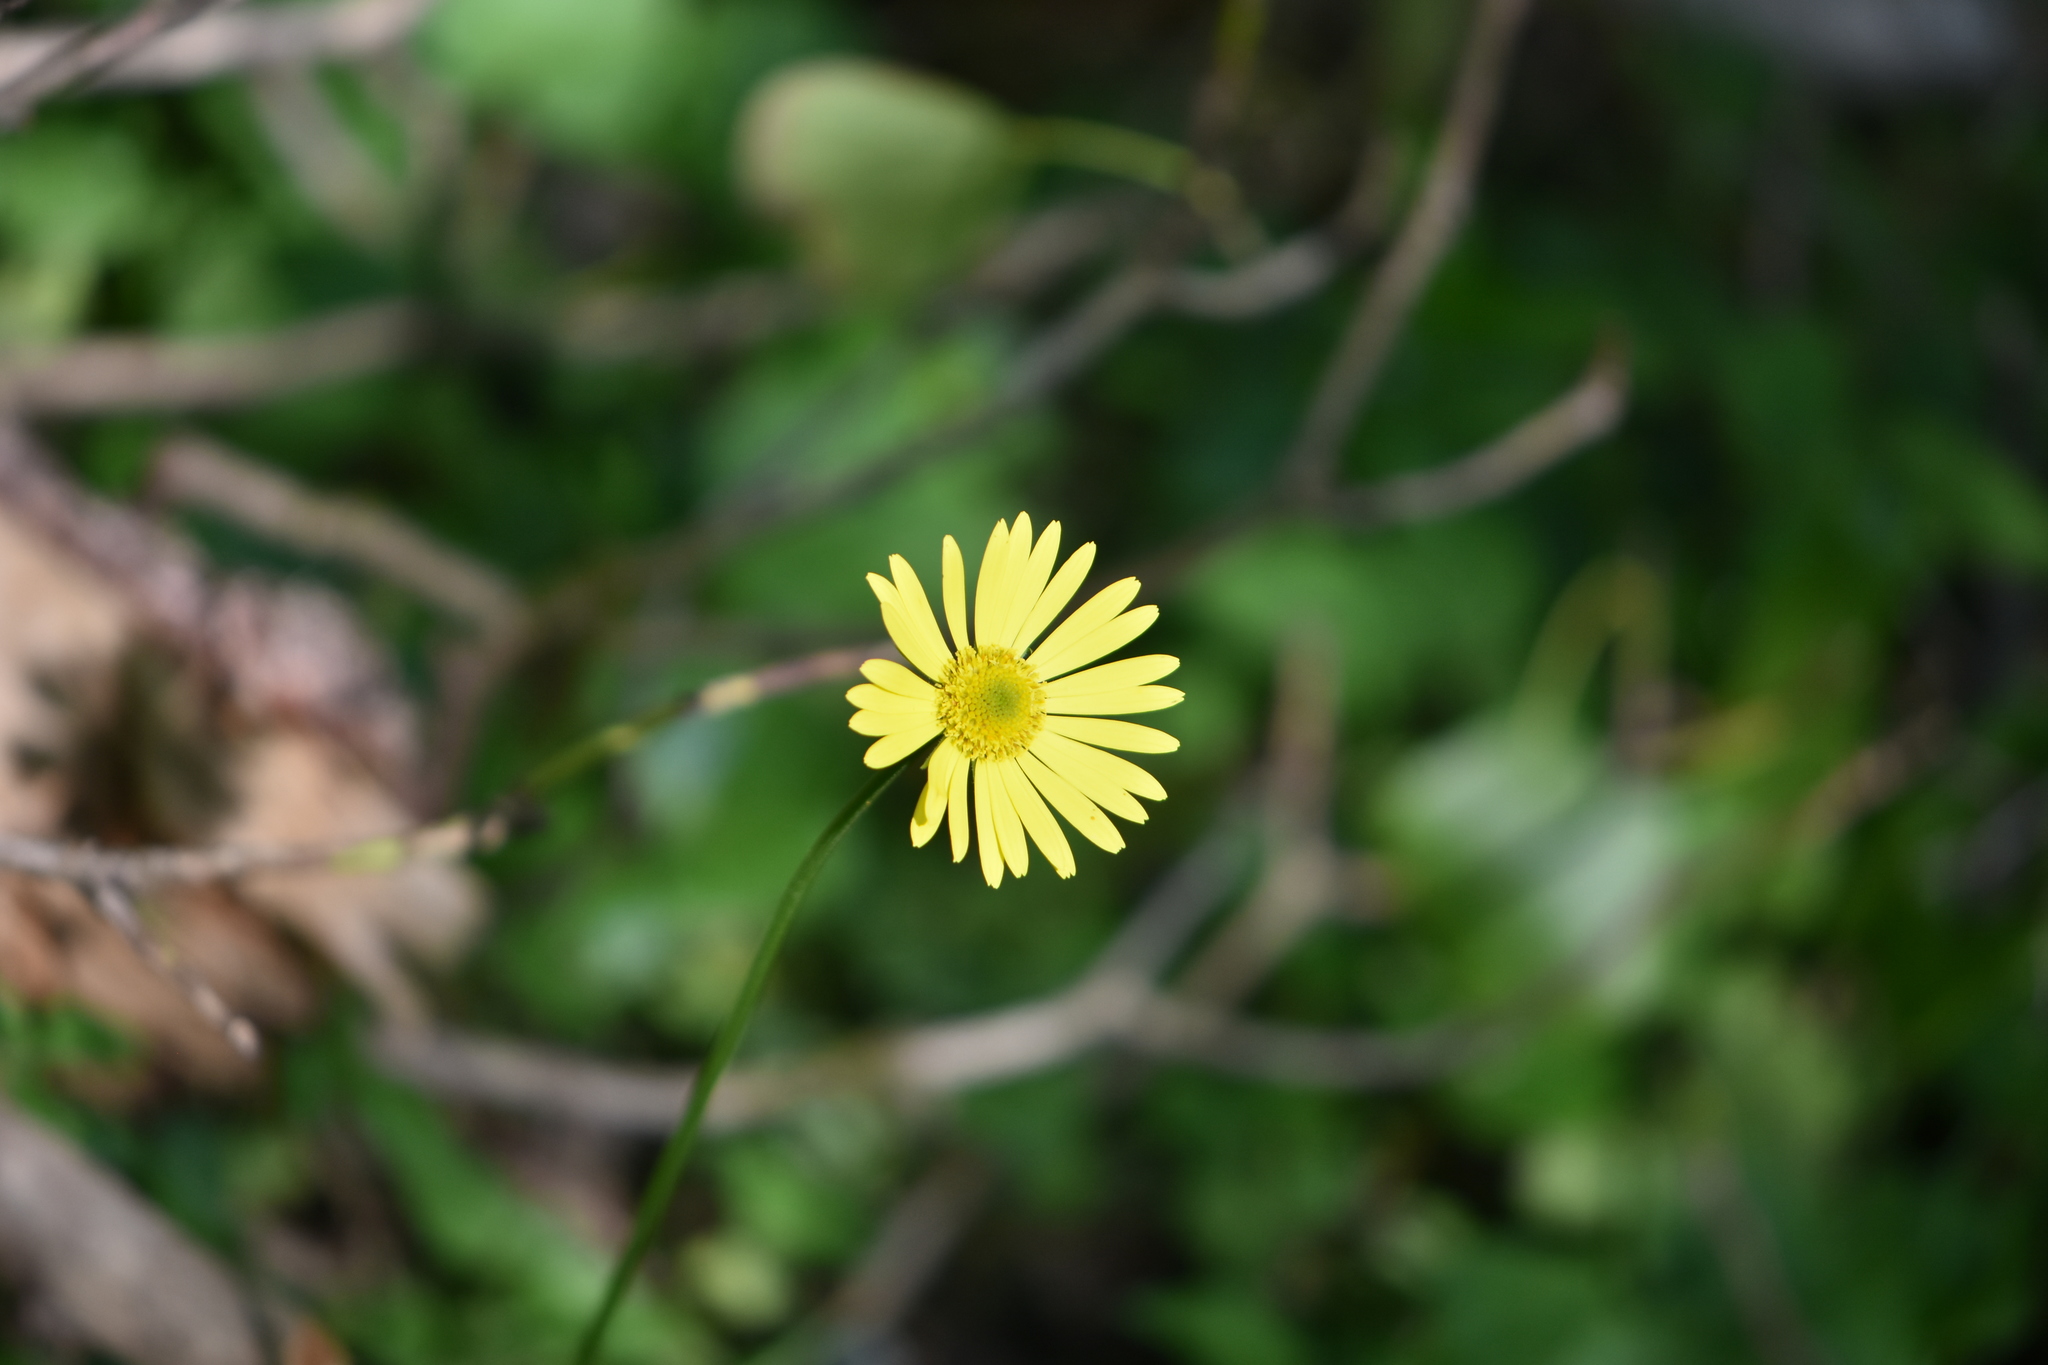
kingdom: Plantae
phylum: Tracheophyta
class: Magnoliopsida
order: Asterales
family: Asteraceae
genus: Doronicum
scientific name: Doronicum
